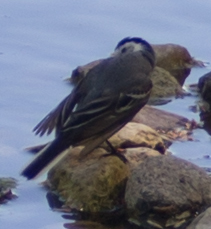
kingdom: Animalia
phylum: Chordata
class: Aves
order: Passeriformes
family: Motacillidae
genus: Motacilla
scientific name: Motacilla alba
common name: White wagtail
